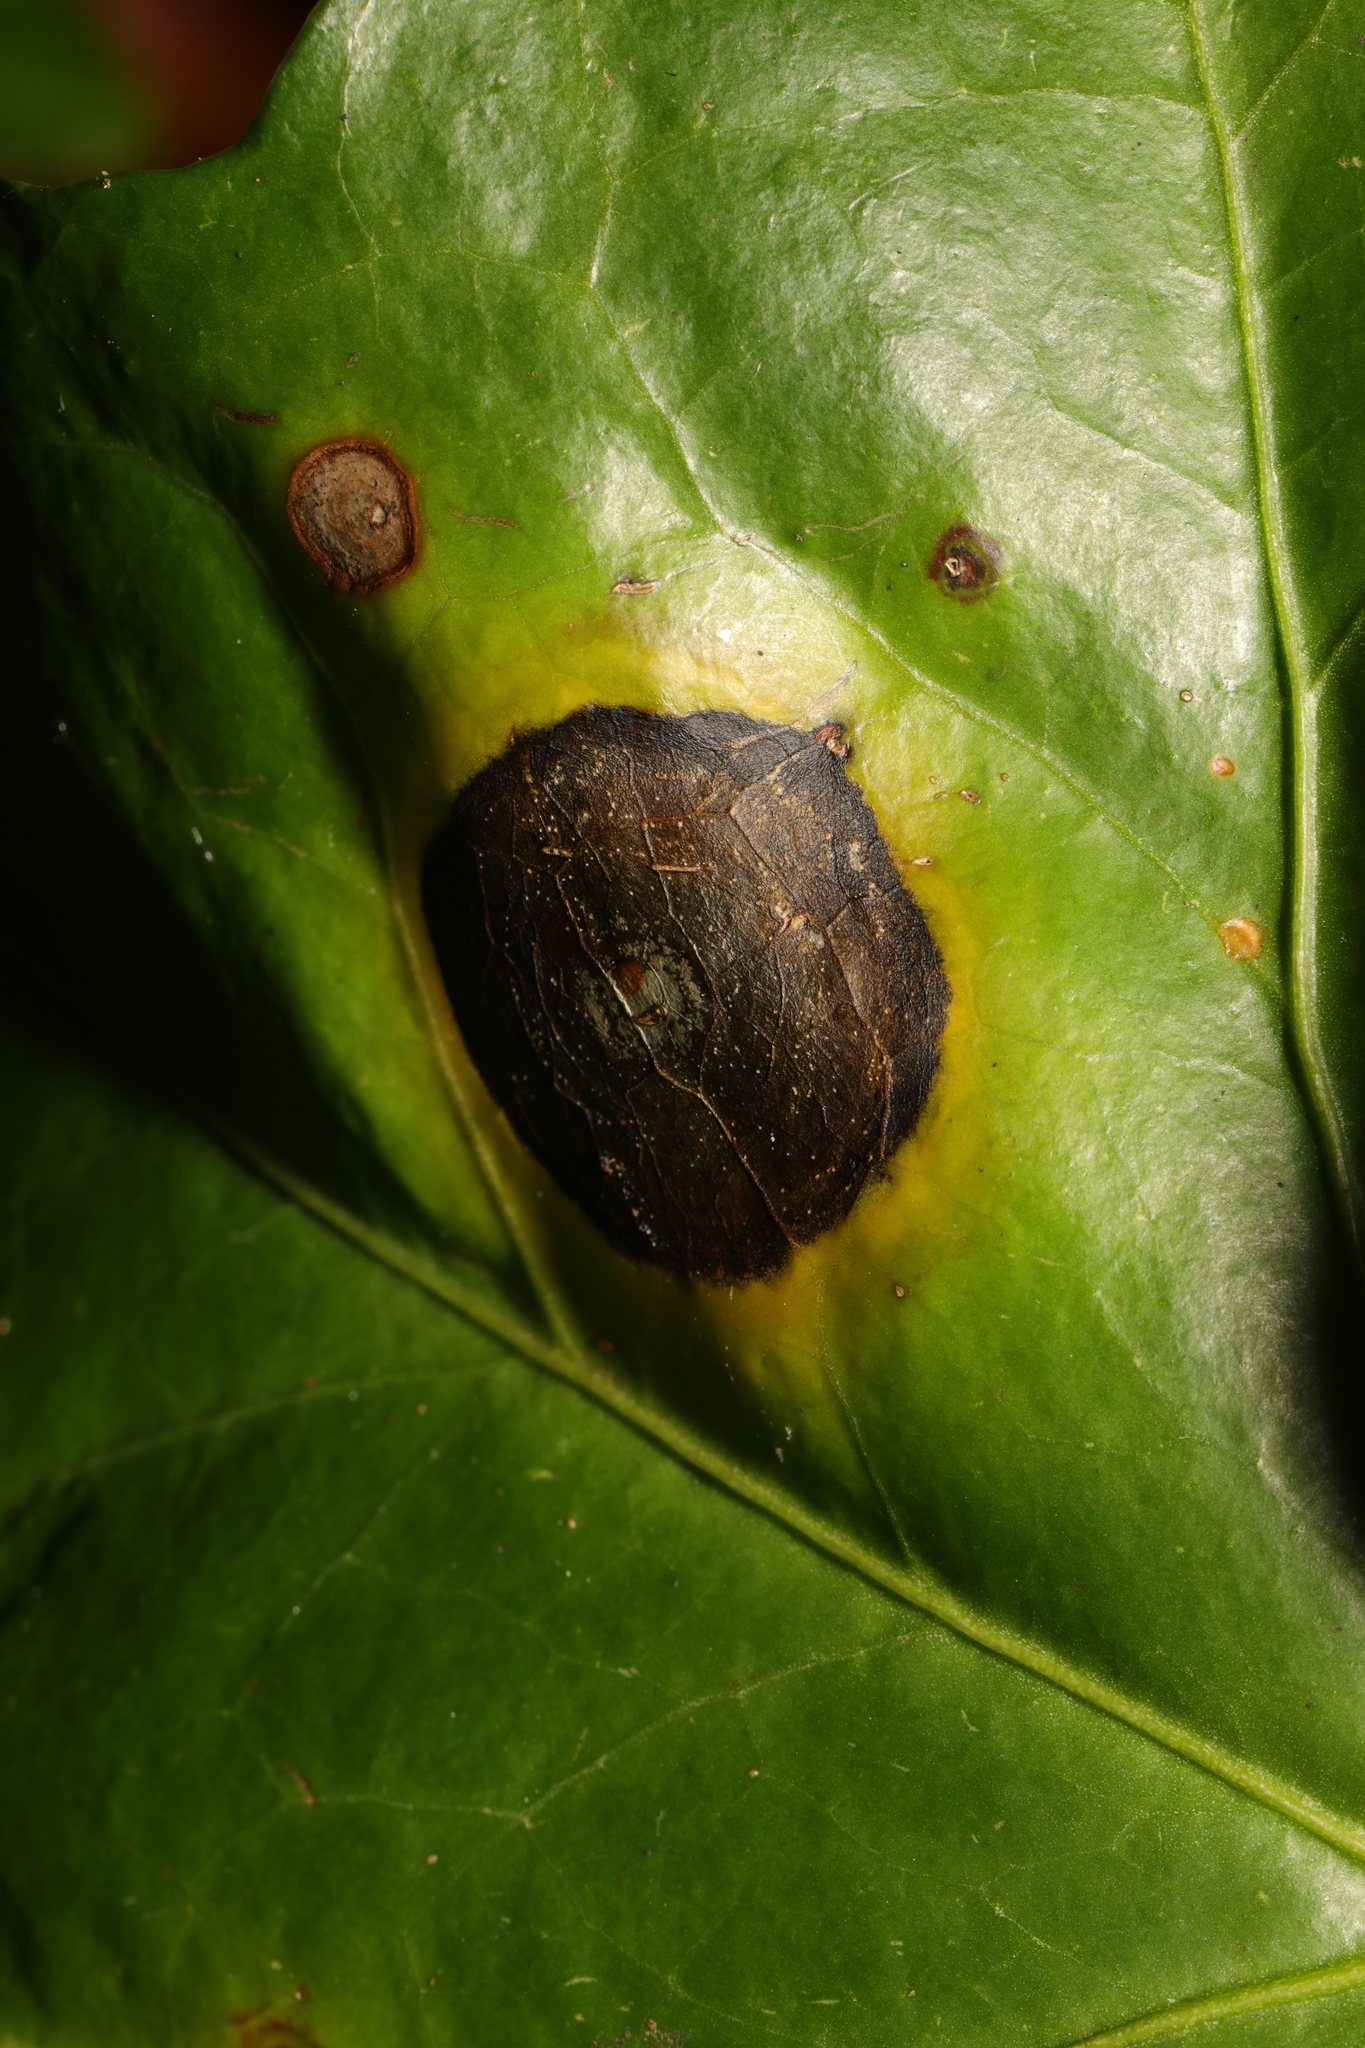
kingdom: Fungi
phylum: Ascomycota
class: Dothideomycetes
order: Pleosporales
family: Didymellaceae
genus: Boeremia
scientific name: Boeremia hedericola
